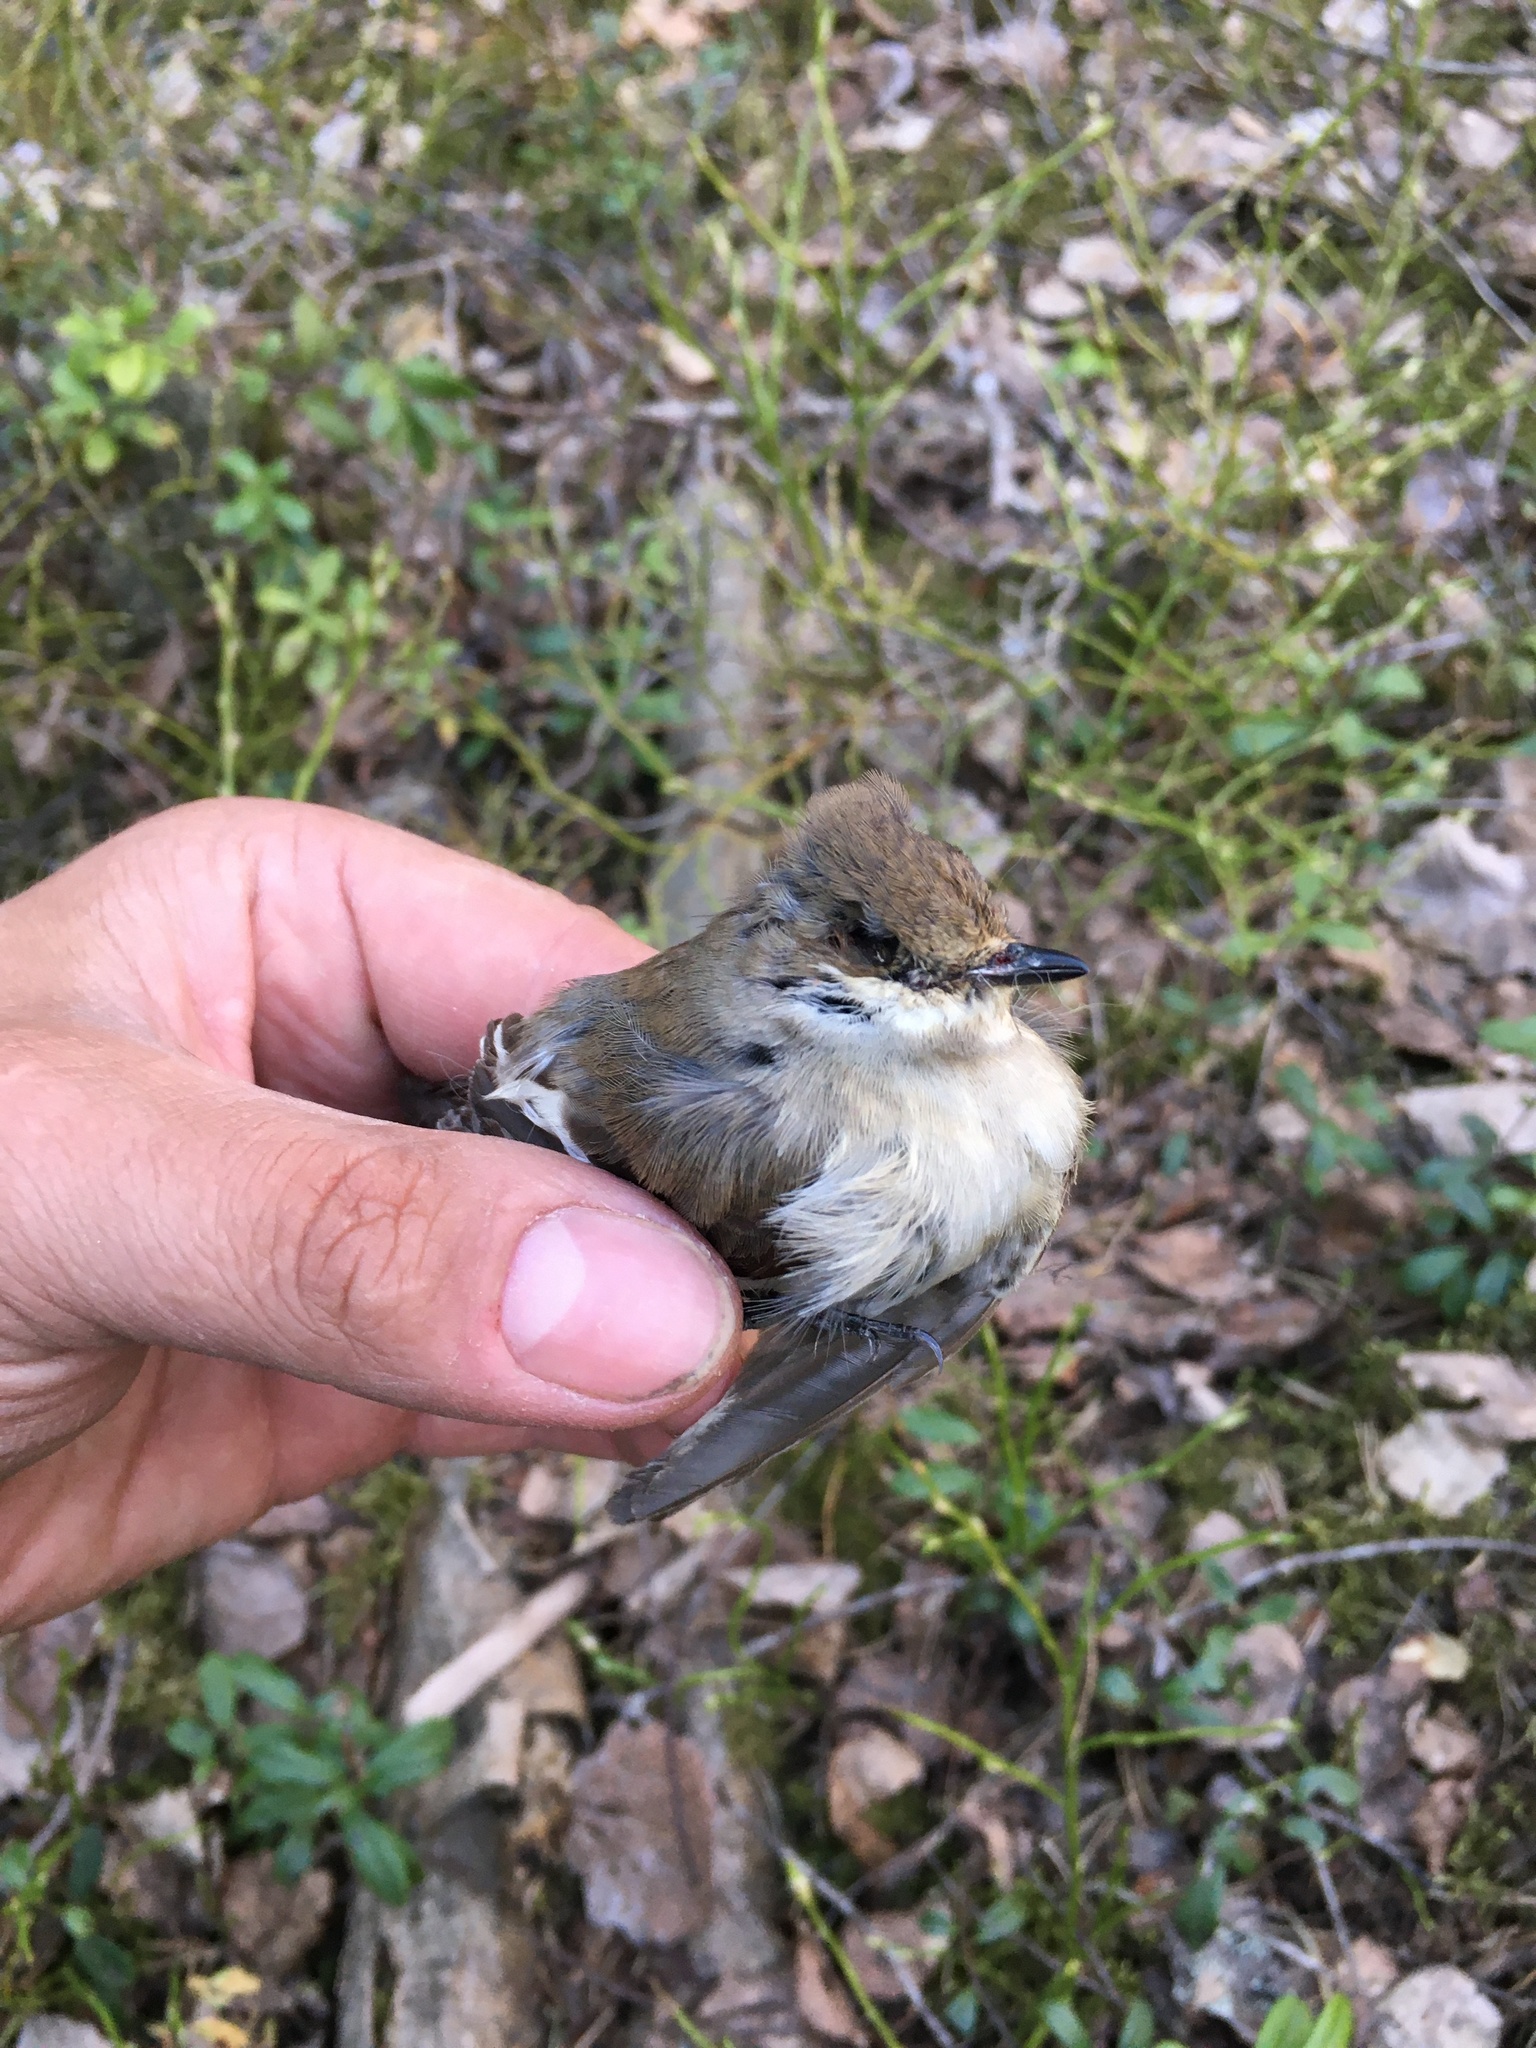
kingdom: Animalia
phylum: Chordata
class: Aves
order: Passeriformes
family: Muscicapidae
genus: Ficedula
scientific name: Ficedula hypoleuca
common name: European pied flycatcher
